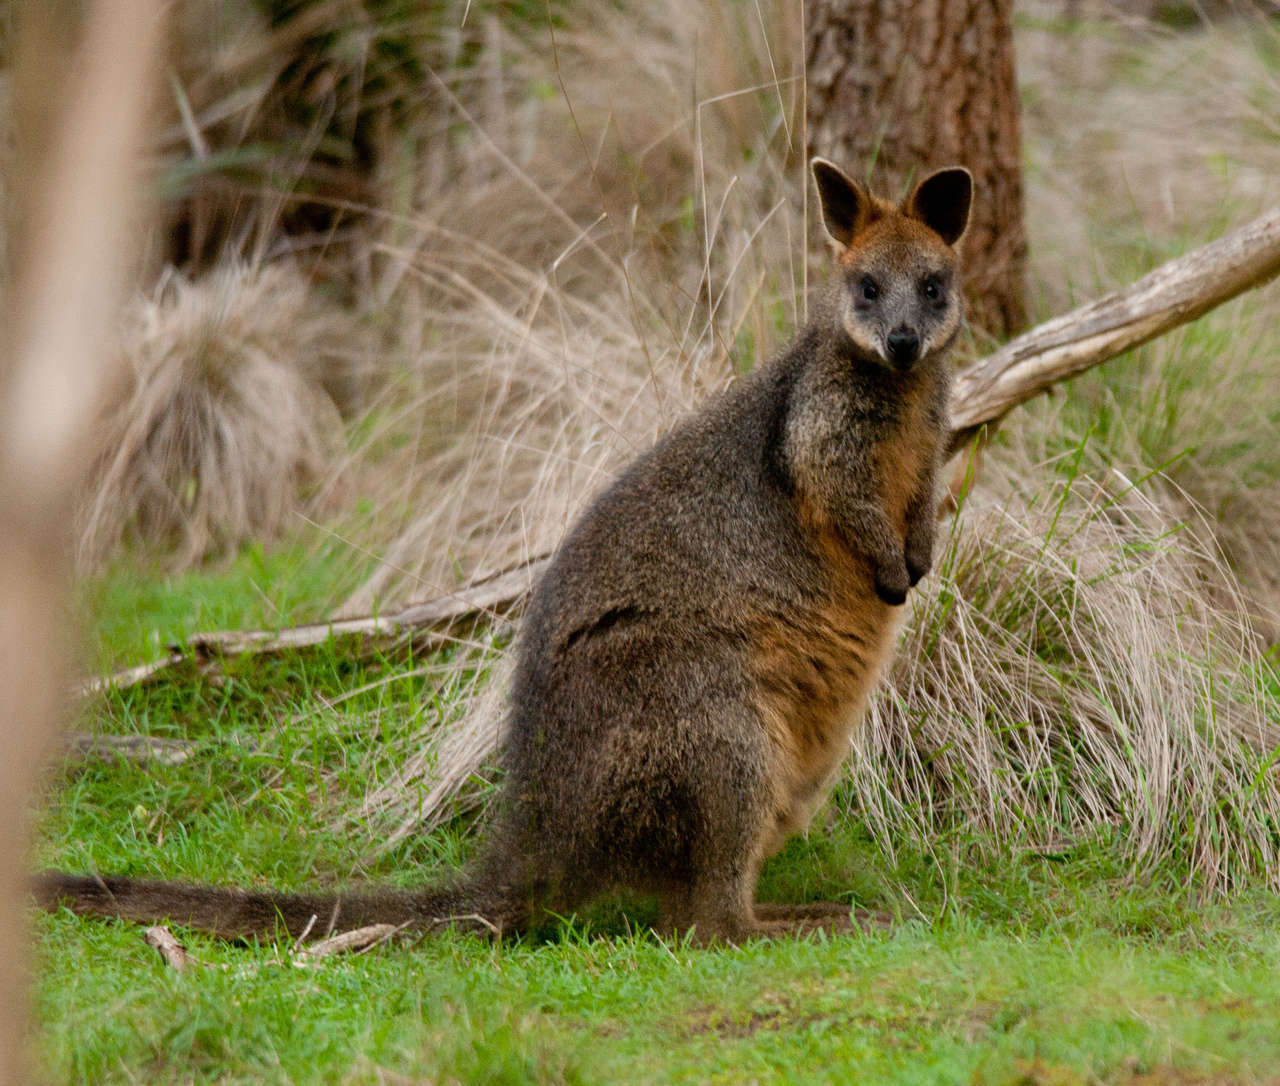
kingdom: Animalia
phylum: Chordata
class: Mammalia
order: Diprotodontia
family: Macropodidae
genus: Wallabia
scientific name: Wallabia bicolor
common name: Swamp wallaby
